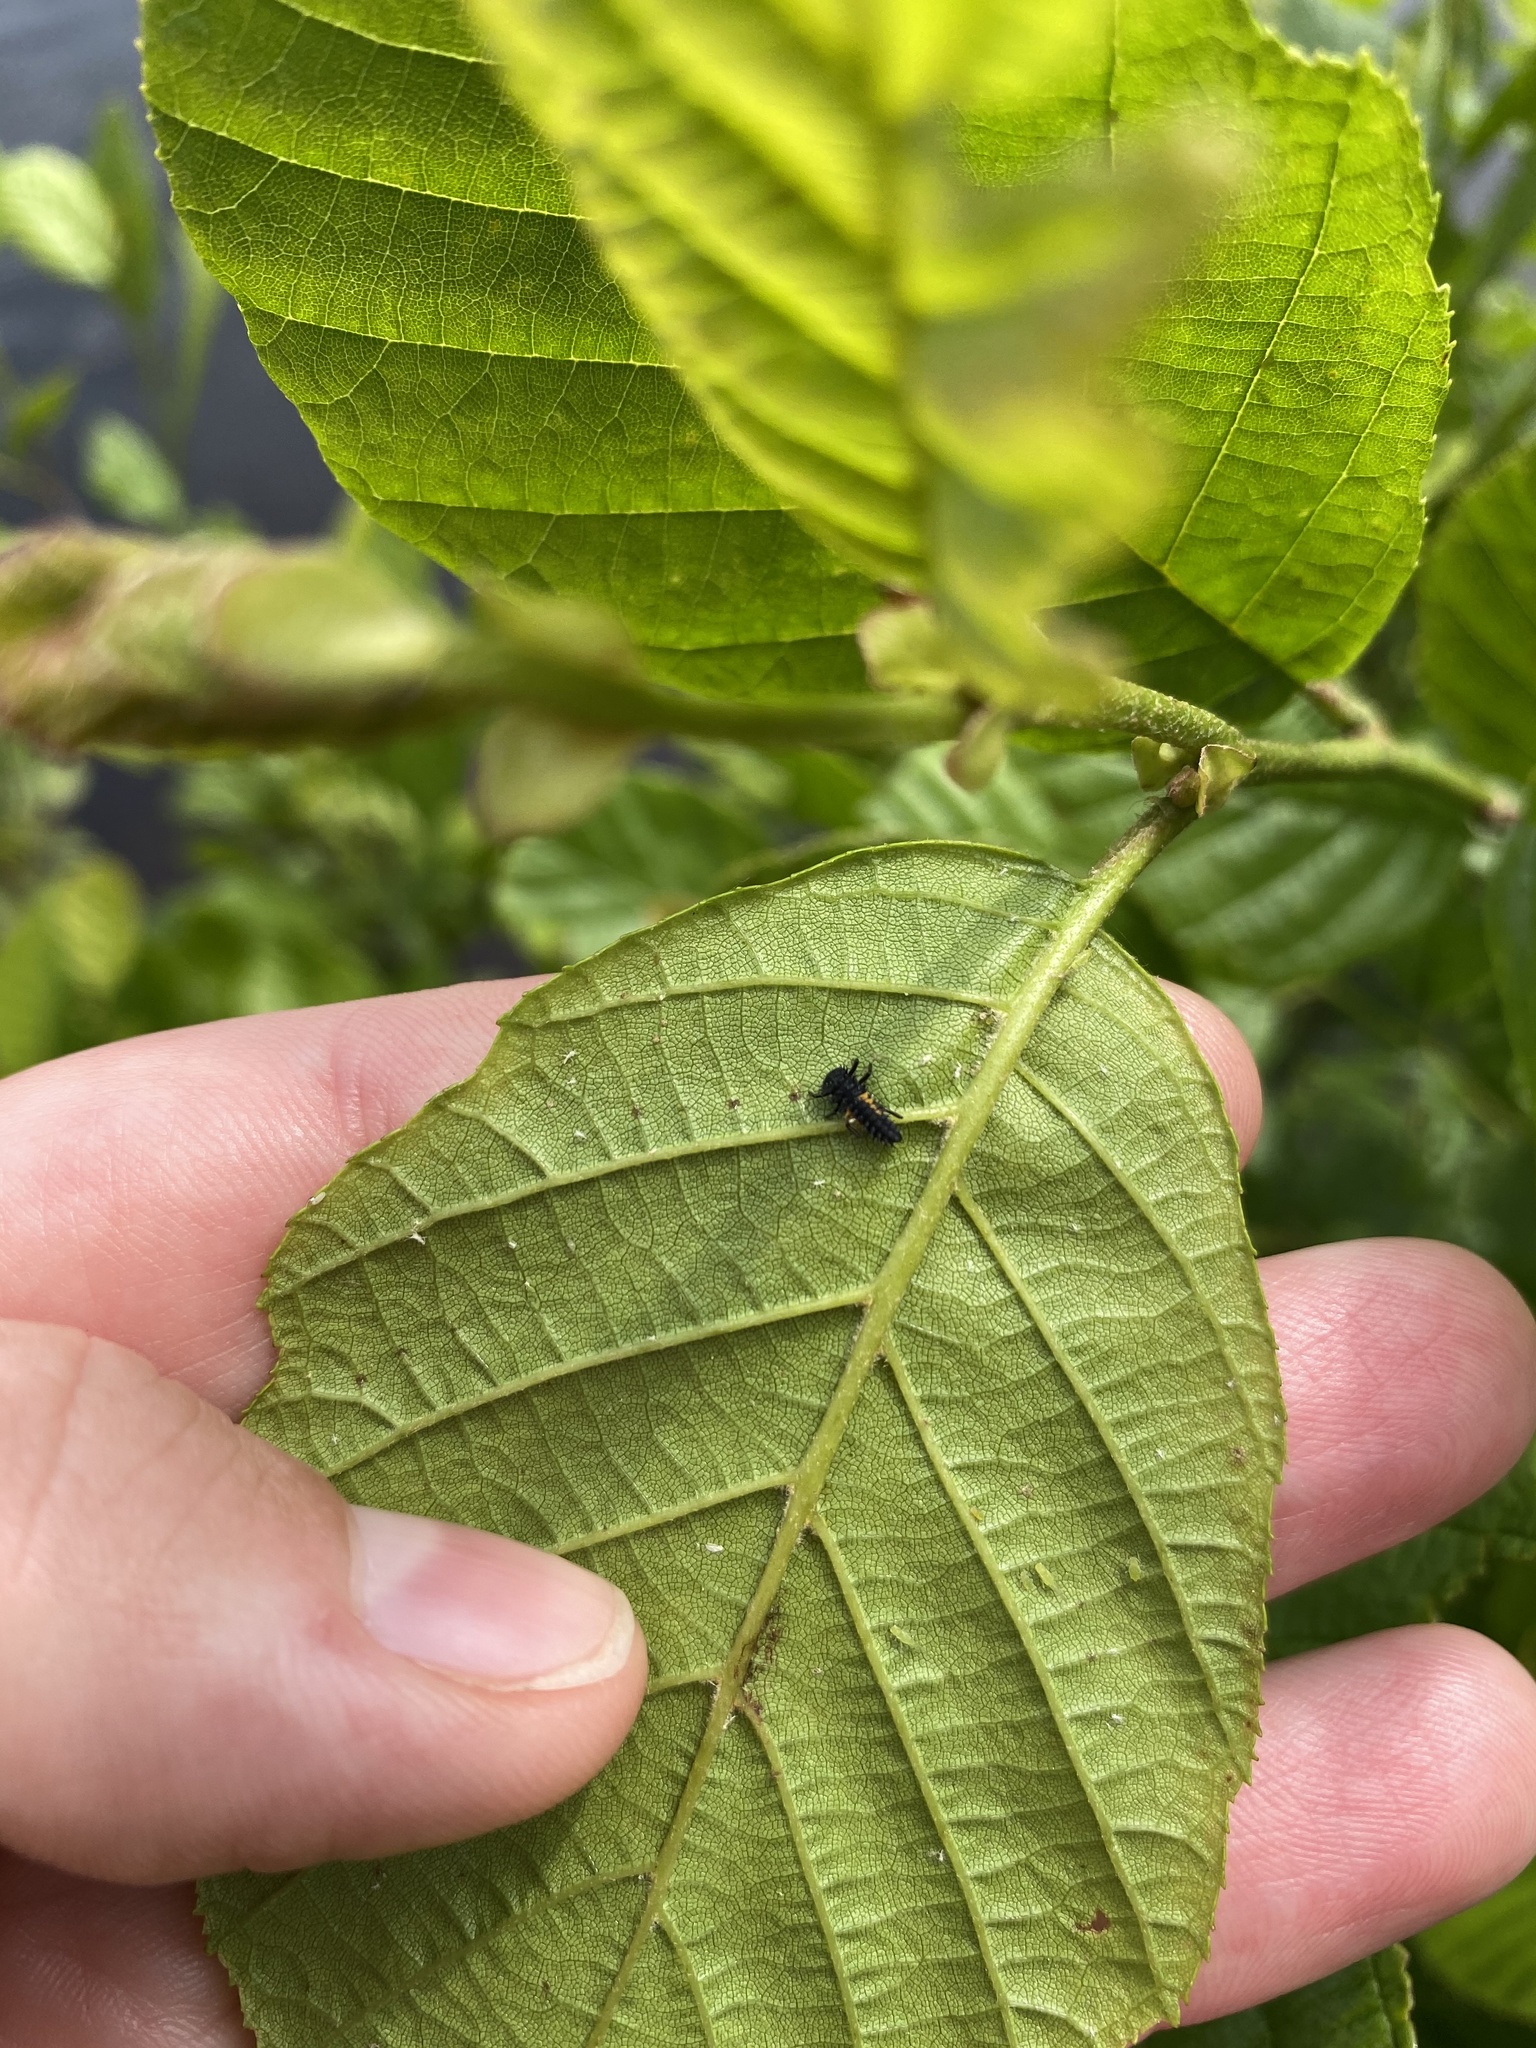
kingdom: Animalia
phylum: Arthropoda
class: Insecta
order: Coleoptera
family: Coccinellidae
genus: Harmonia
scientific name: Harmonia axyridis
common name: Harlequin ladybird
